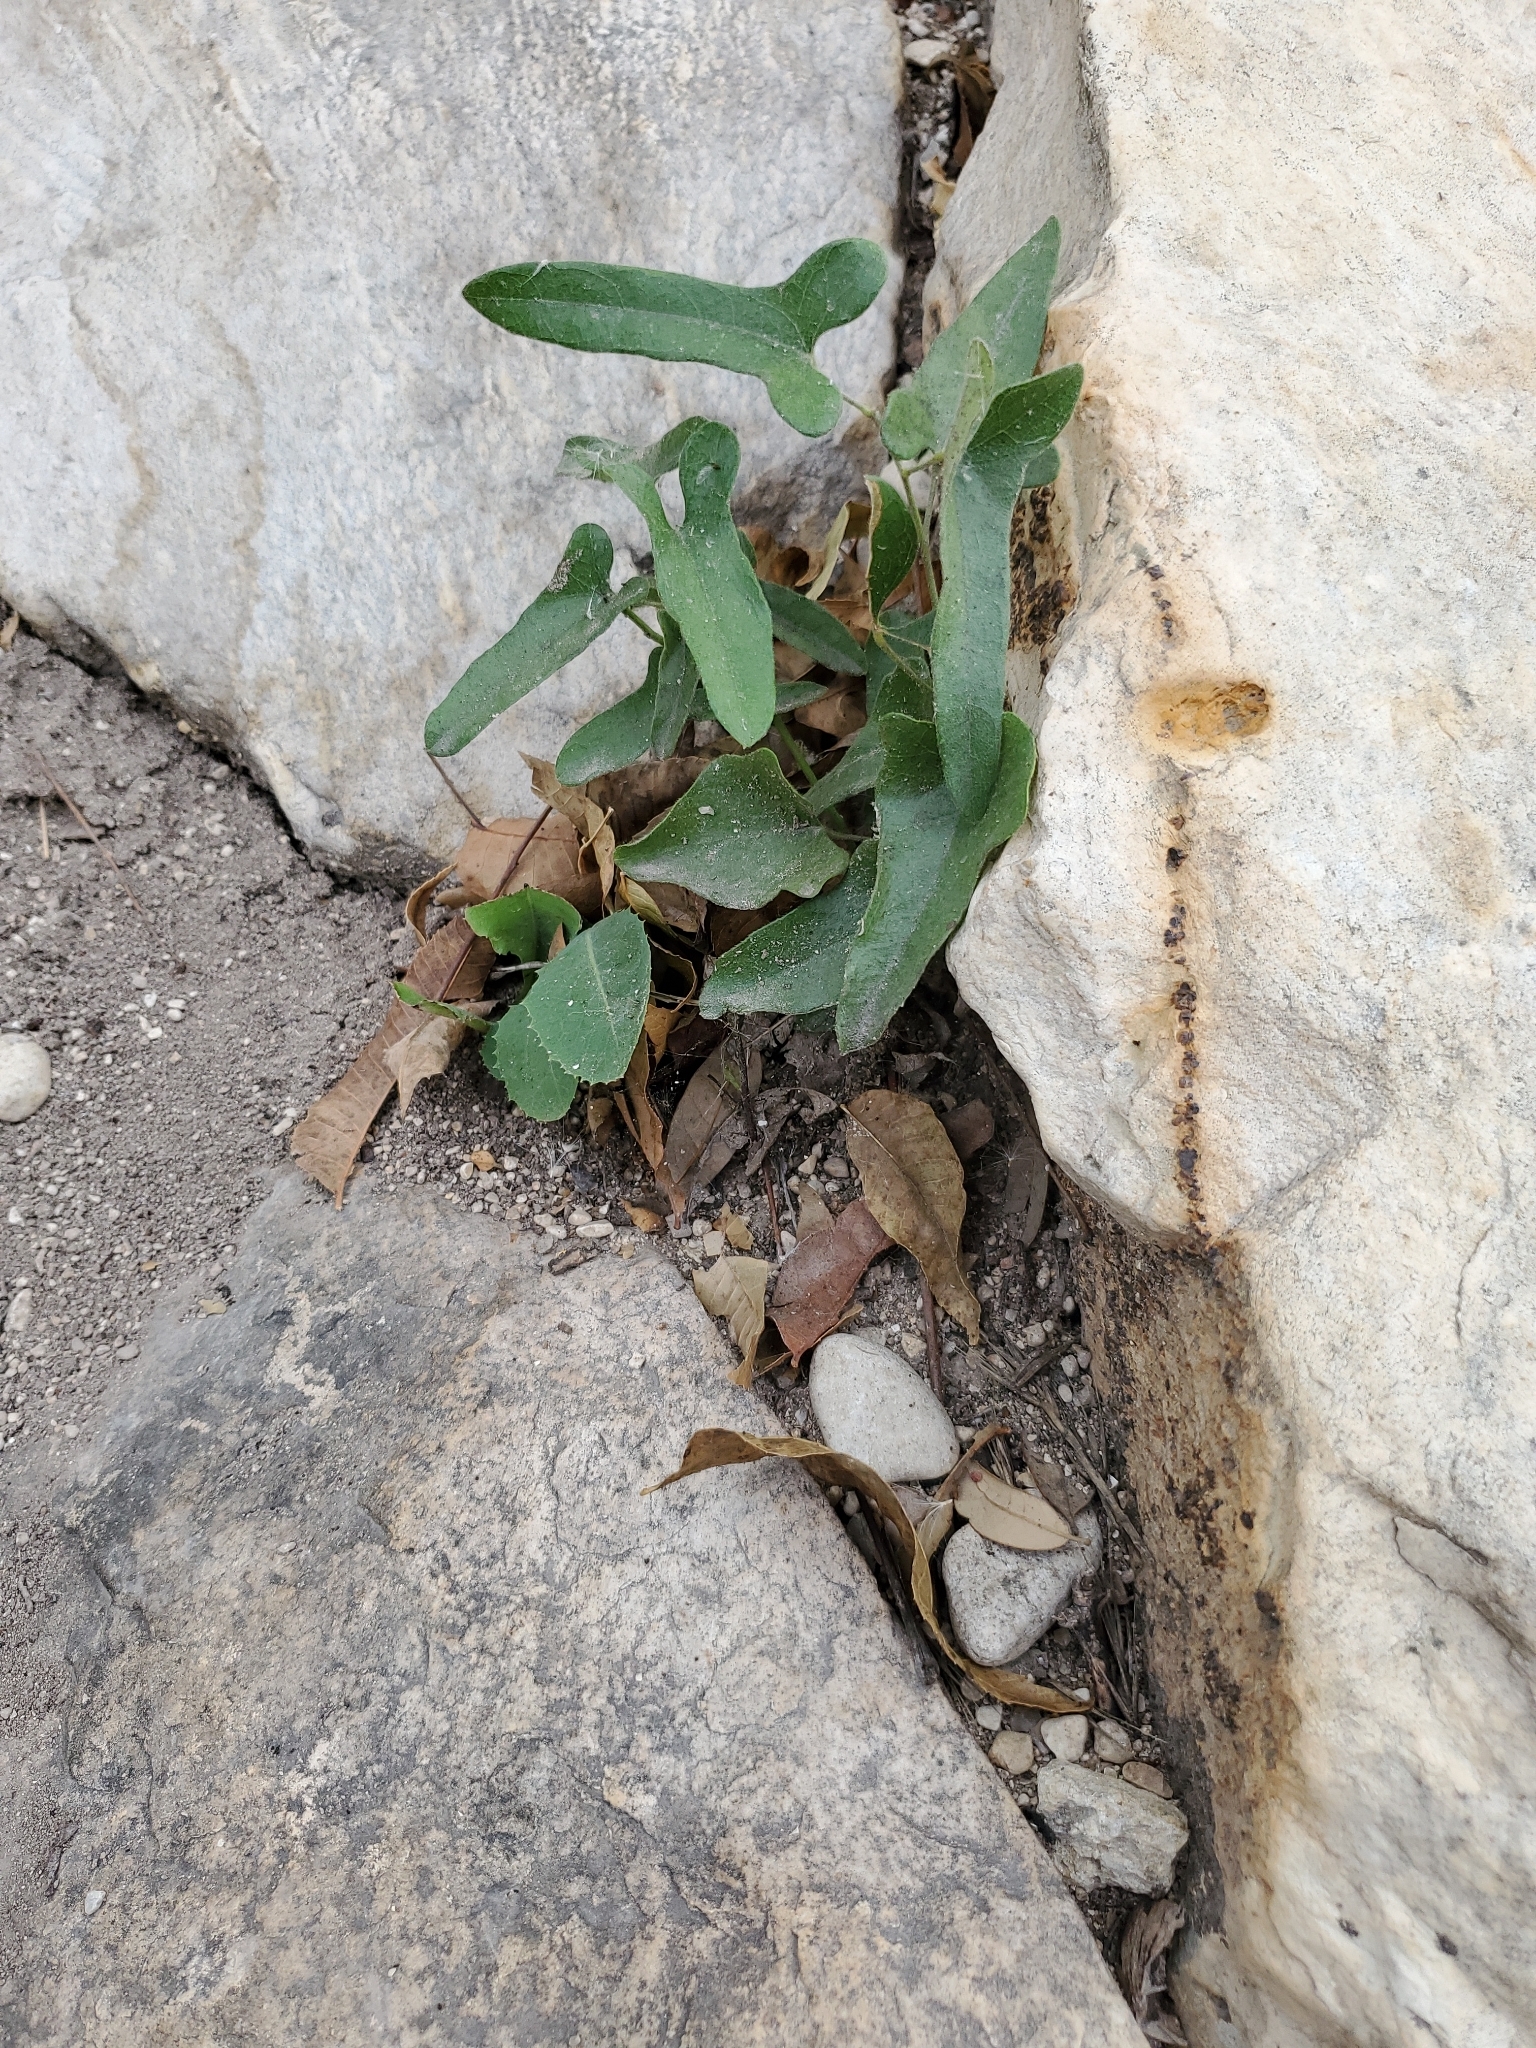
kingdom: Plantae
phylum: Tracheophyta
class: Magnoliopsida
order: Piperales
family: Aristolochiaceae
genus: Aristolochia
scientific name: Aristolochia coryi
